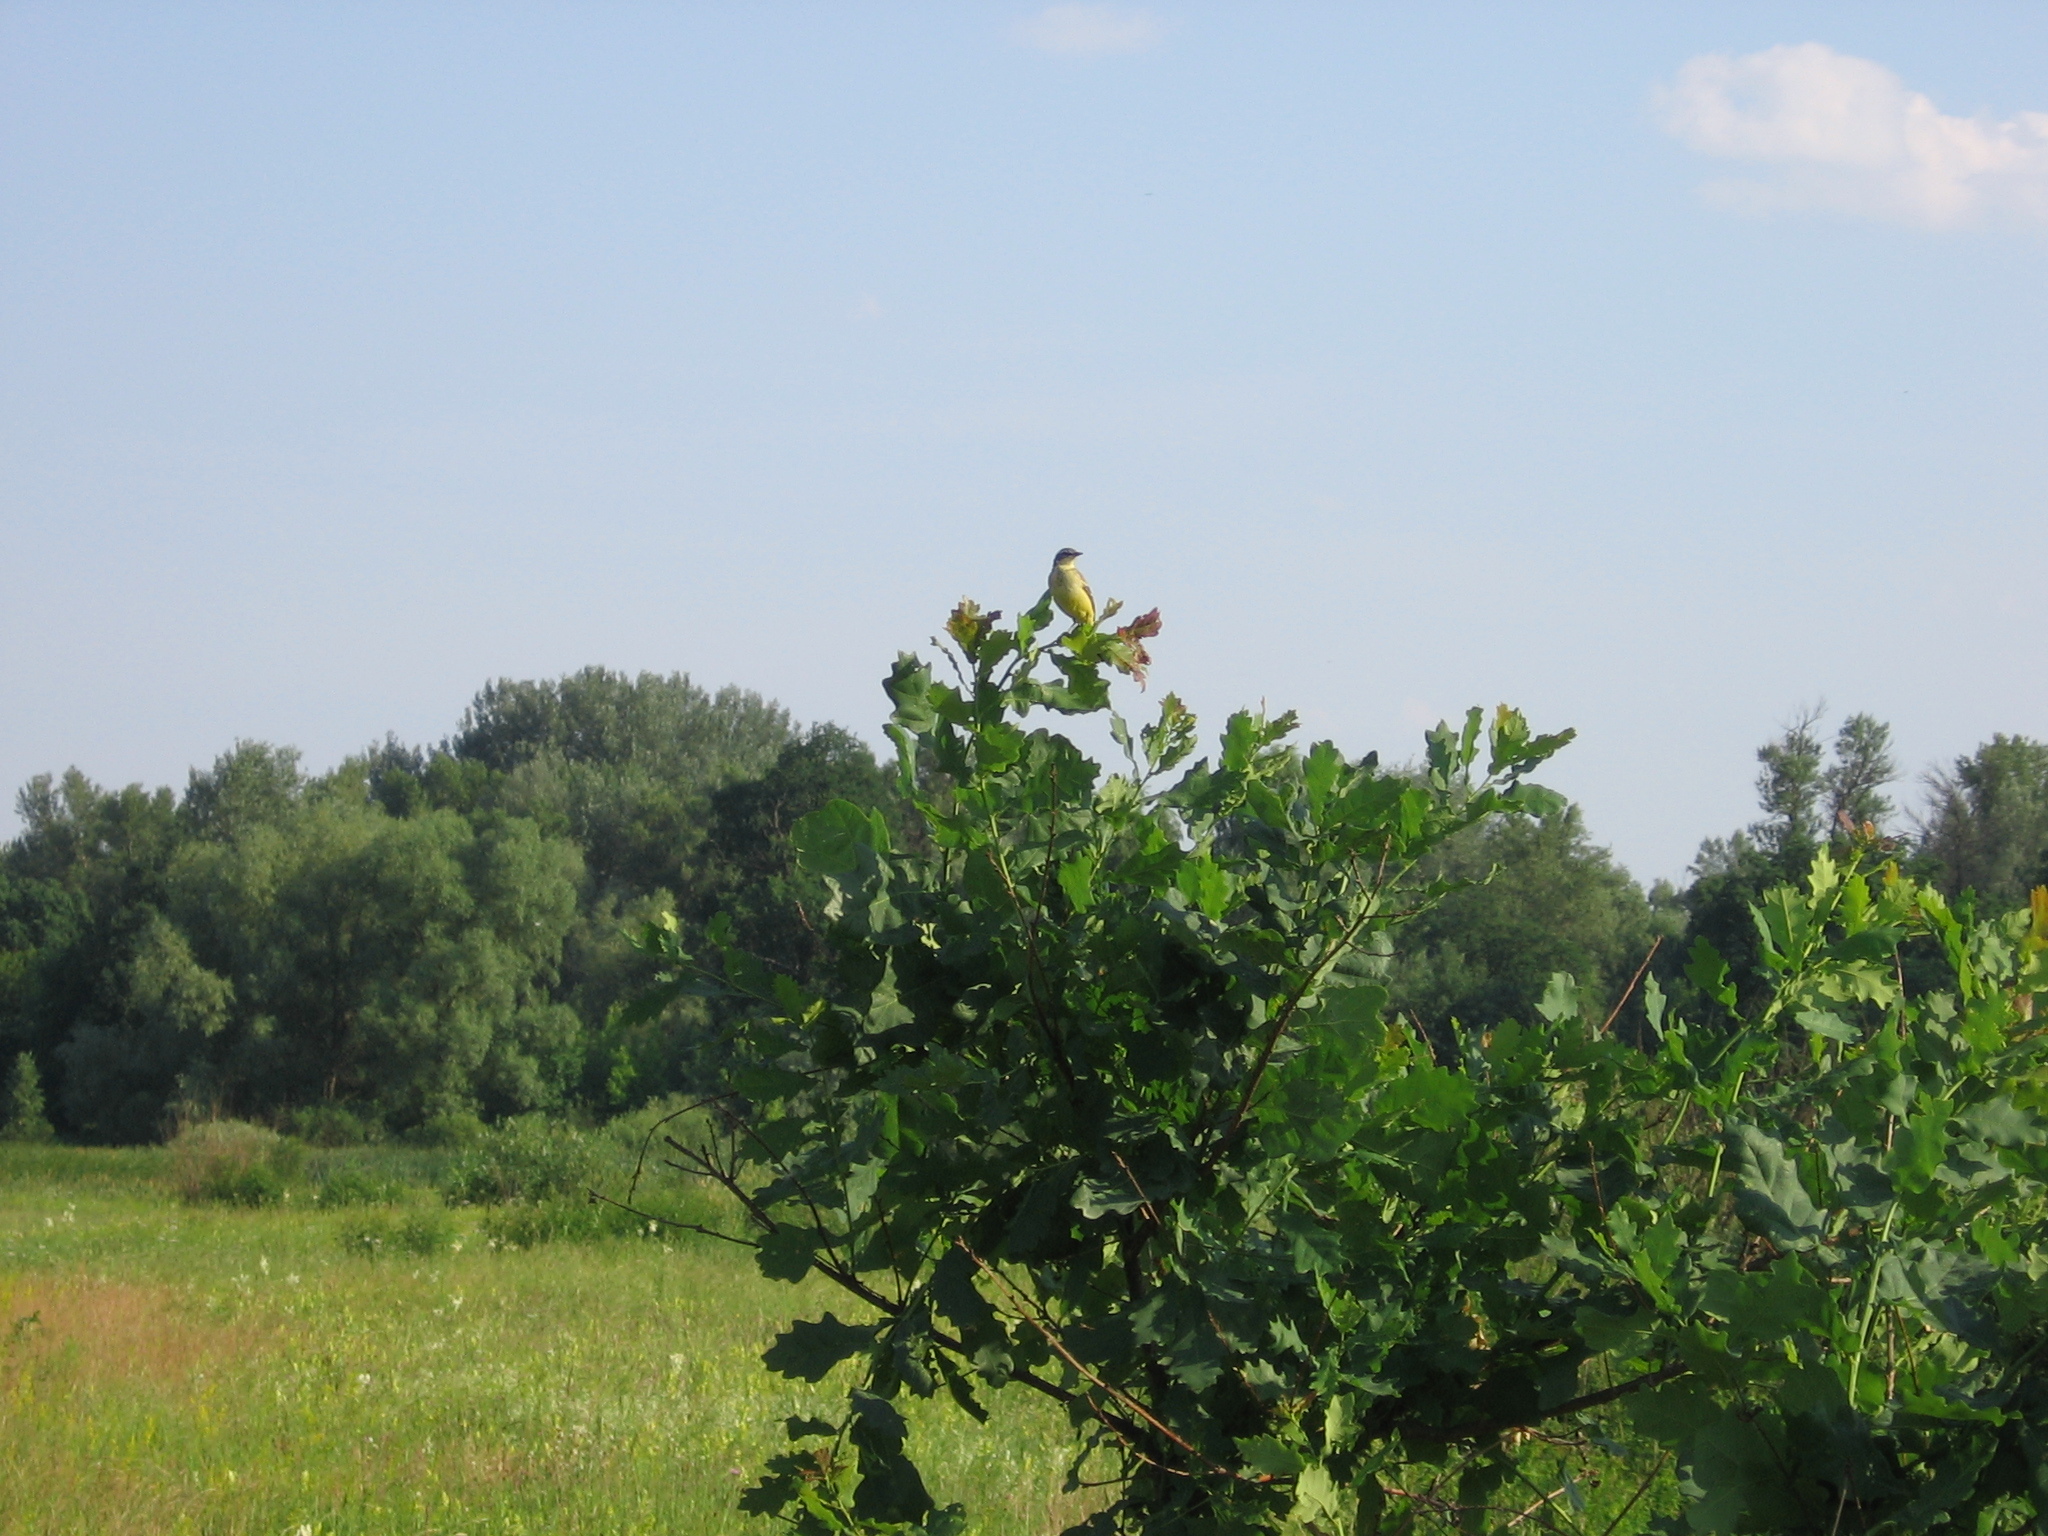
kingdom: Animalia
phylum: Chordata
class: Aves
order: Passeriformes
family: Motacillidae
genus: Motacilla
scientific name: Motacilla flava
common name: Western yellow wagtail
